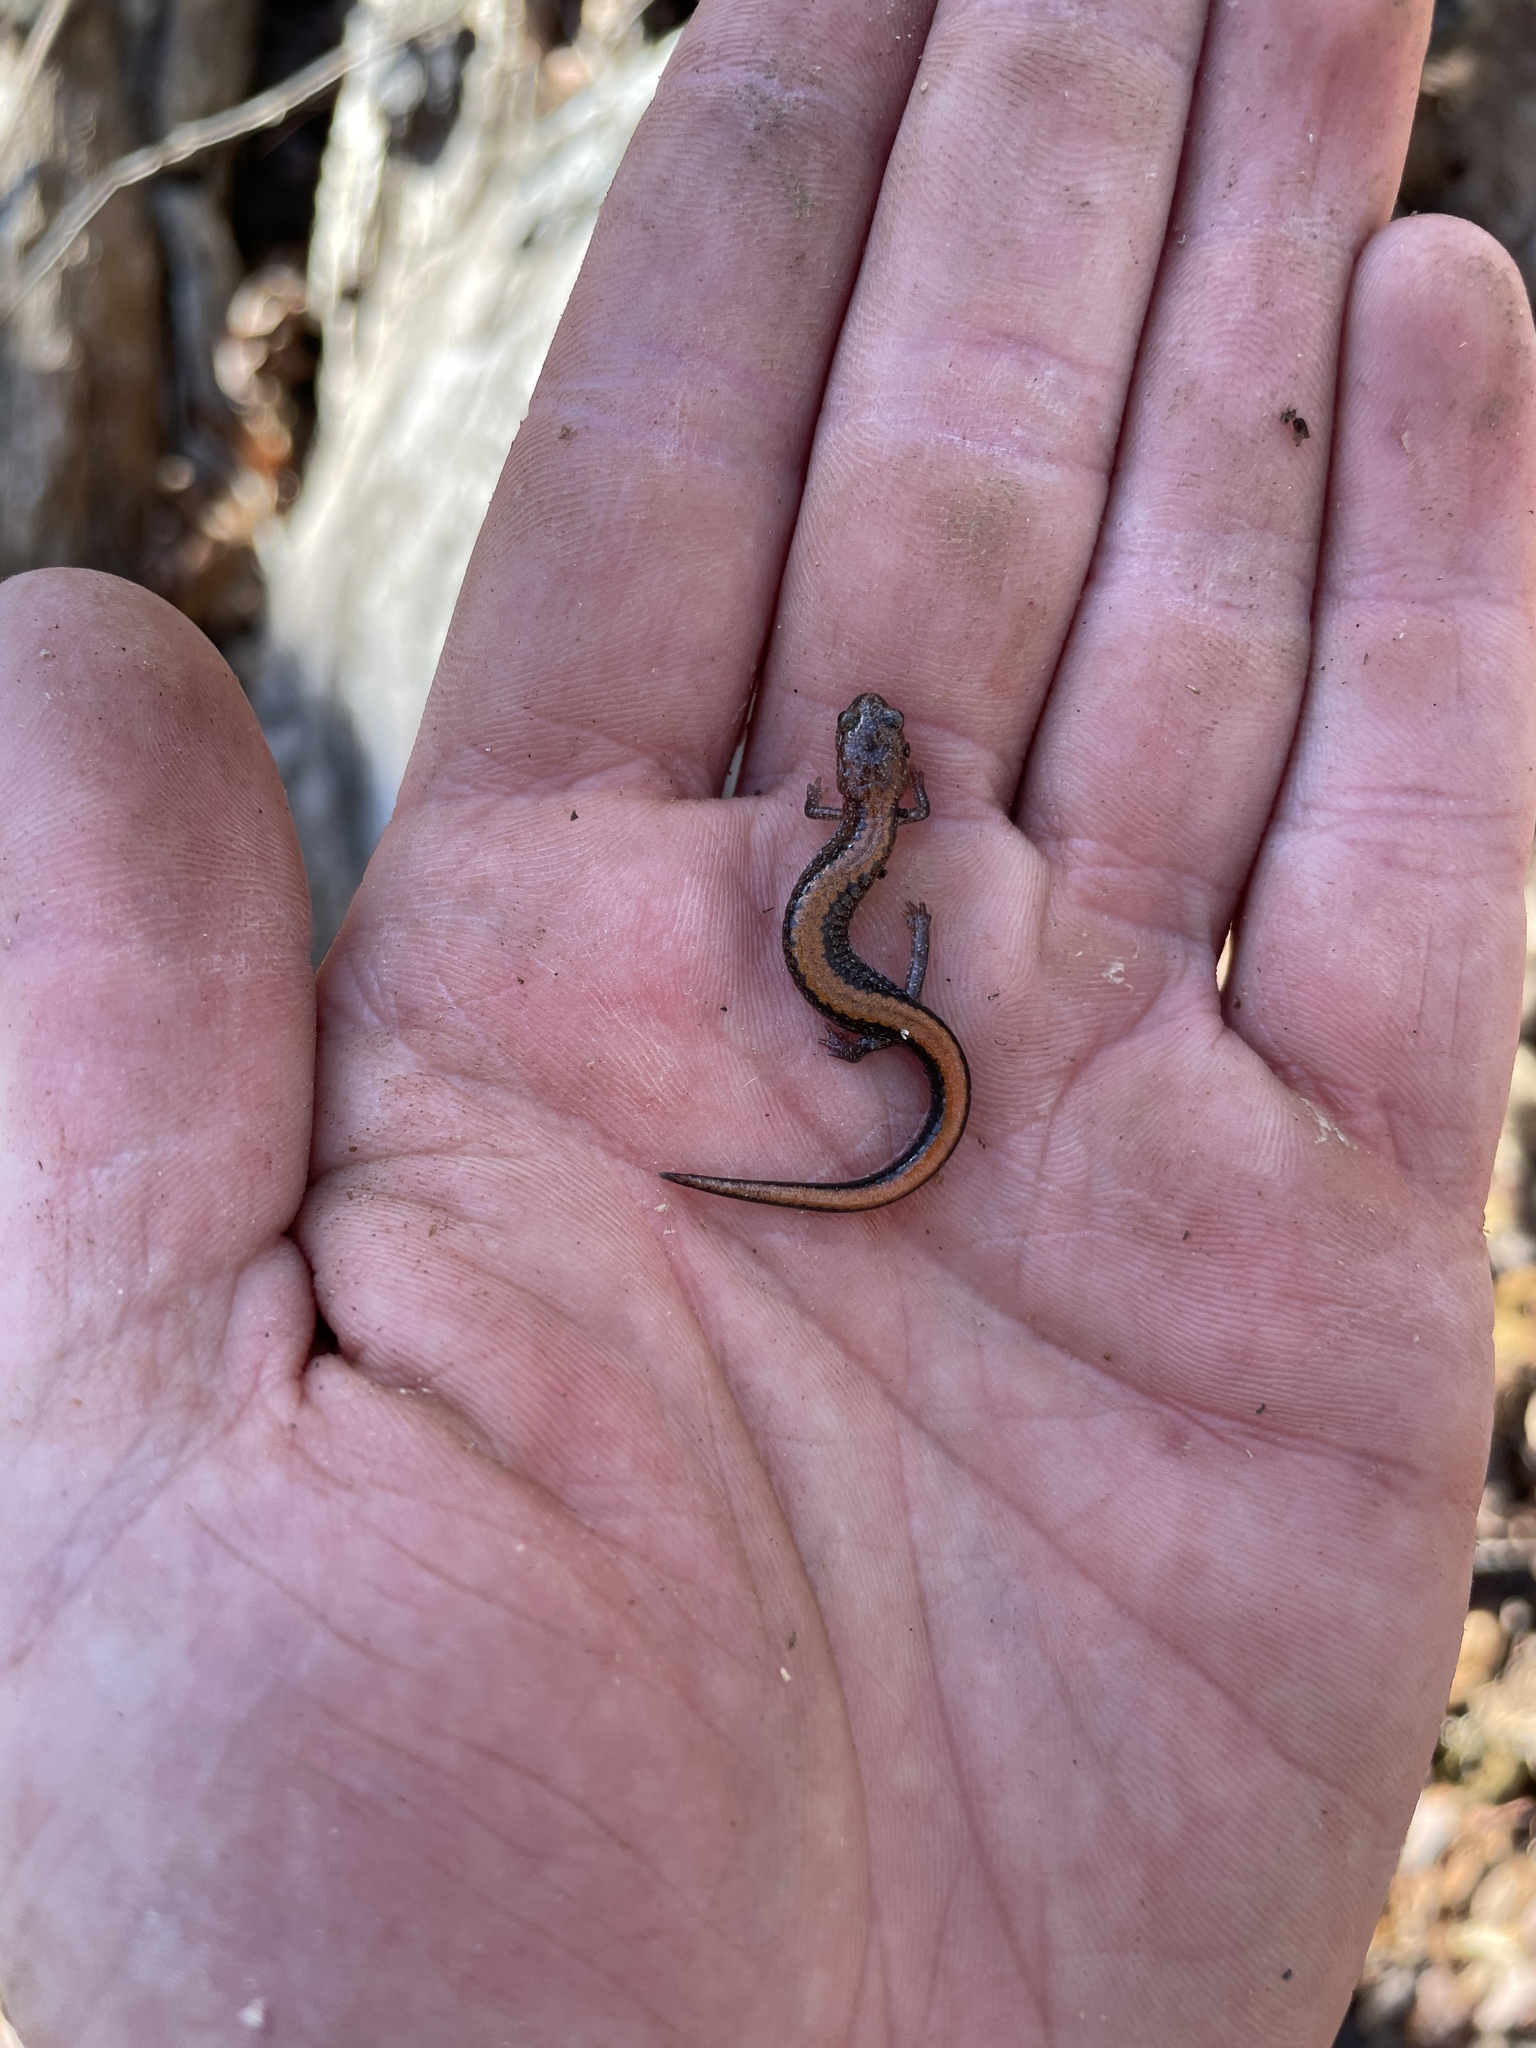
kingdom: Animalia
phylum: Chordata
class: Amphibia
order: Caudata
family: Plethodontidae
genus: Plethodon
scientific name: Plethodon serratus
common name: Southern red-backed salamander
